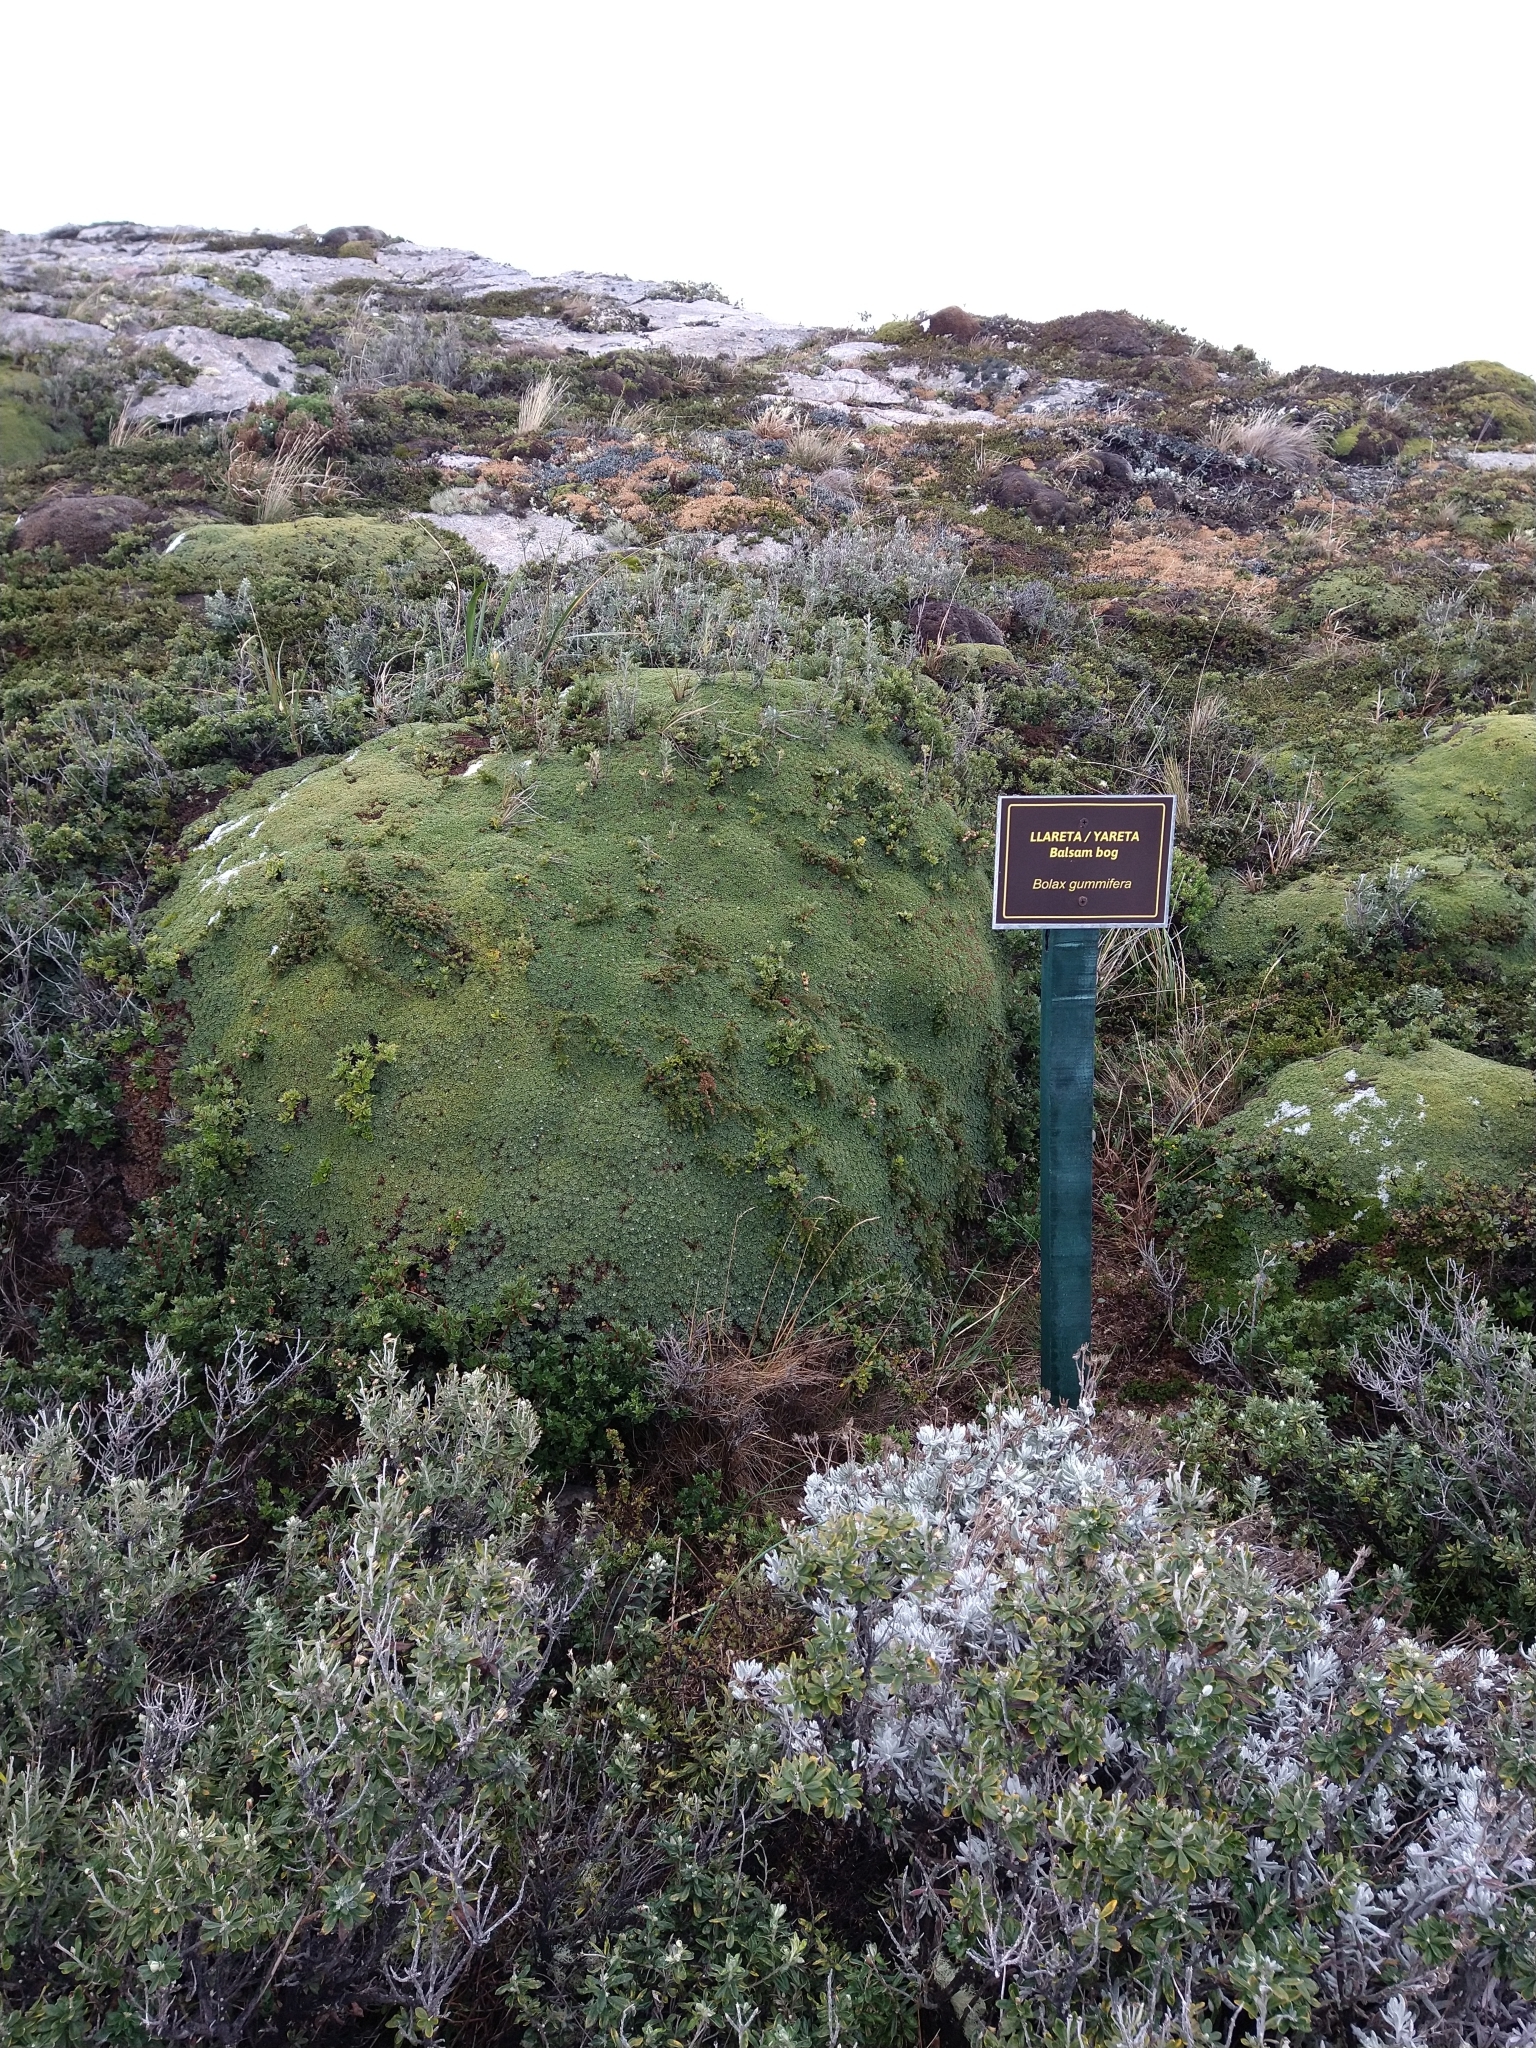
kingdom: Plantae
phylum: Tracheophyta
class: Magnoliopsida
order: Apiales
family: Apiaceae
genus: Bolax
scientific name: Bolax gummifera
